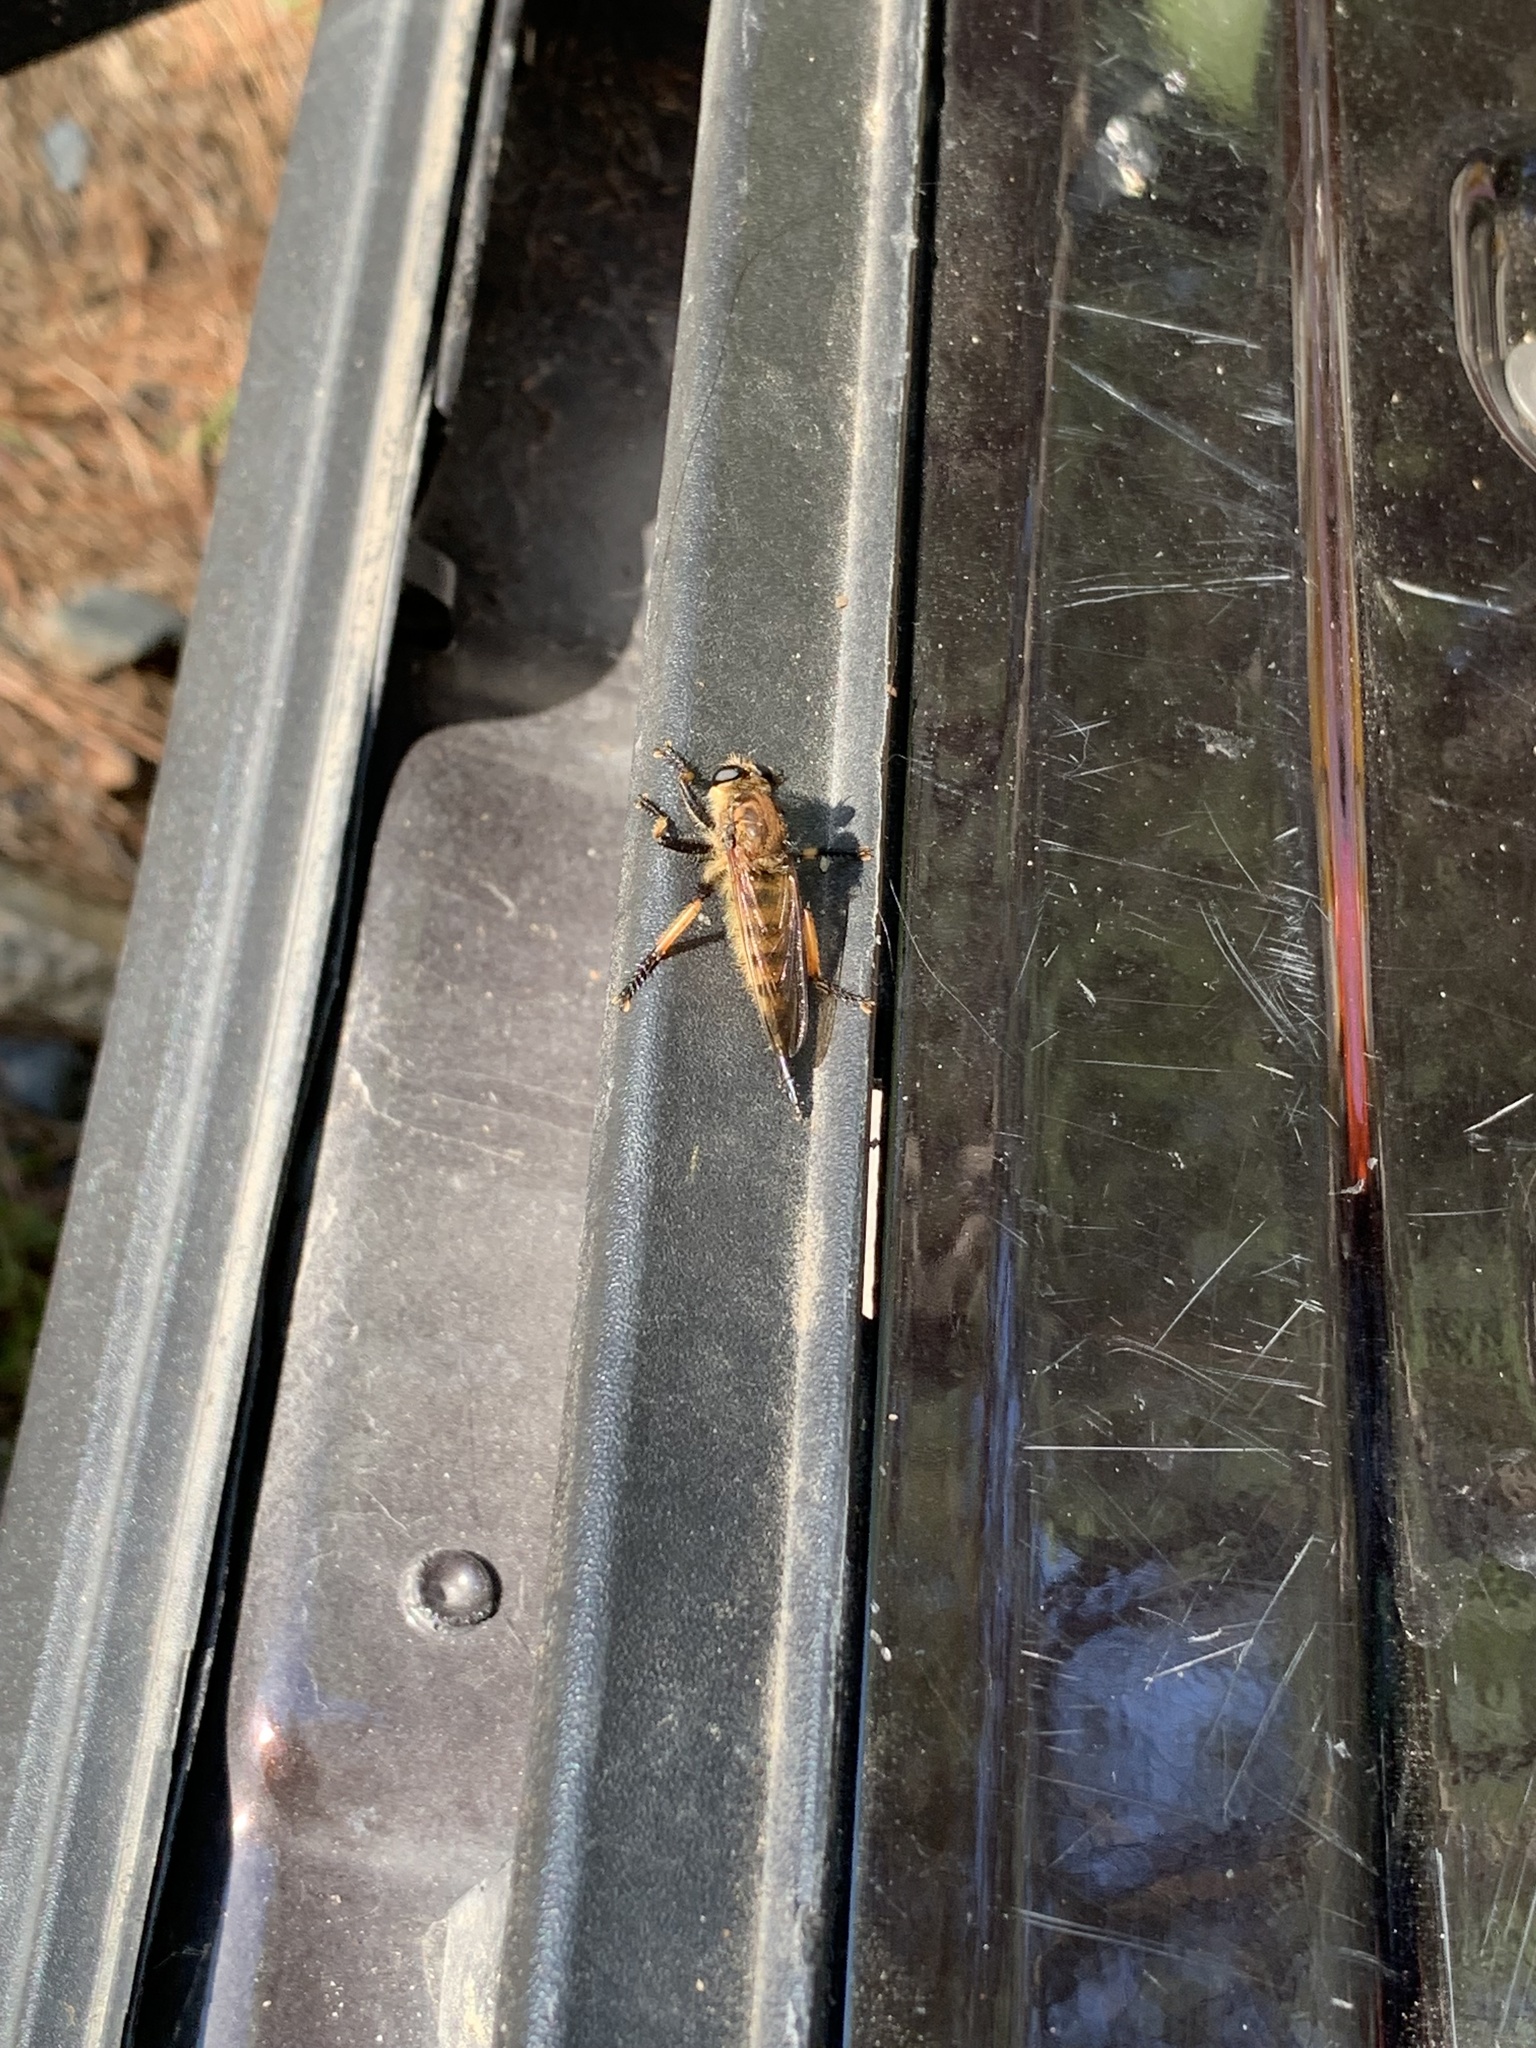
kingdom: Animalia
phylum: Arthropoda
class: Insecta
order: Diptera
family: Asilidae
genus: Promachus
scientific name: Promachus rufipes
